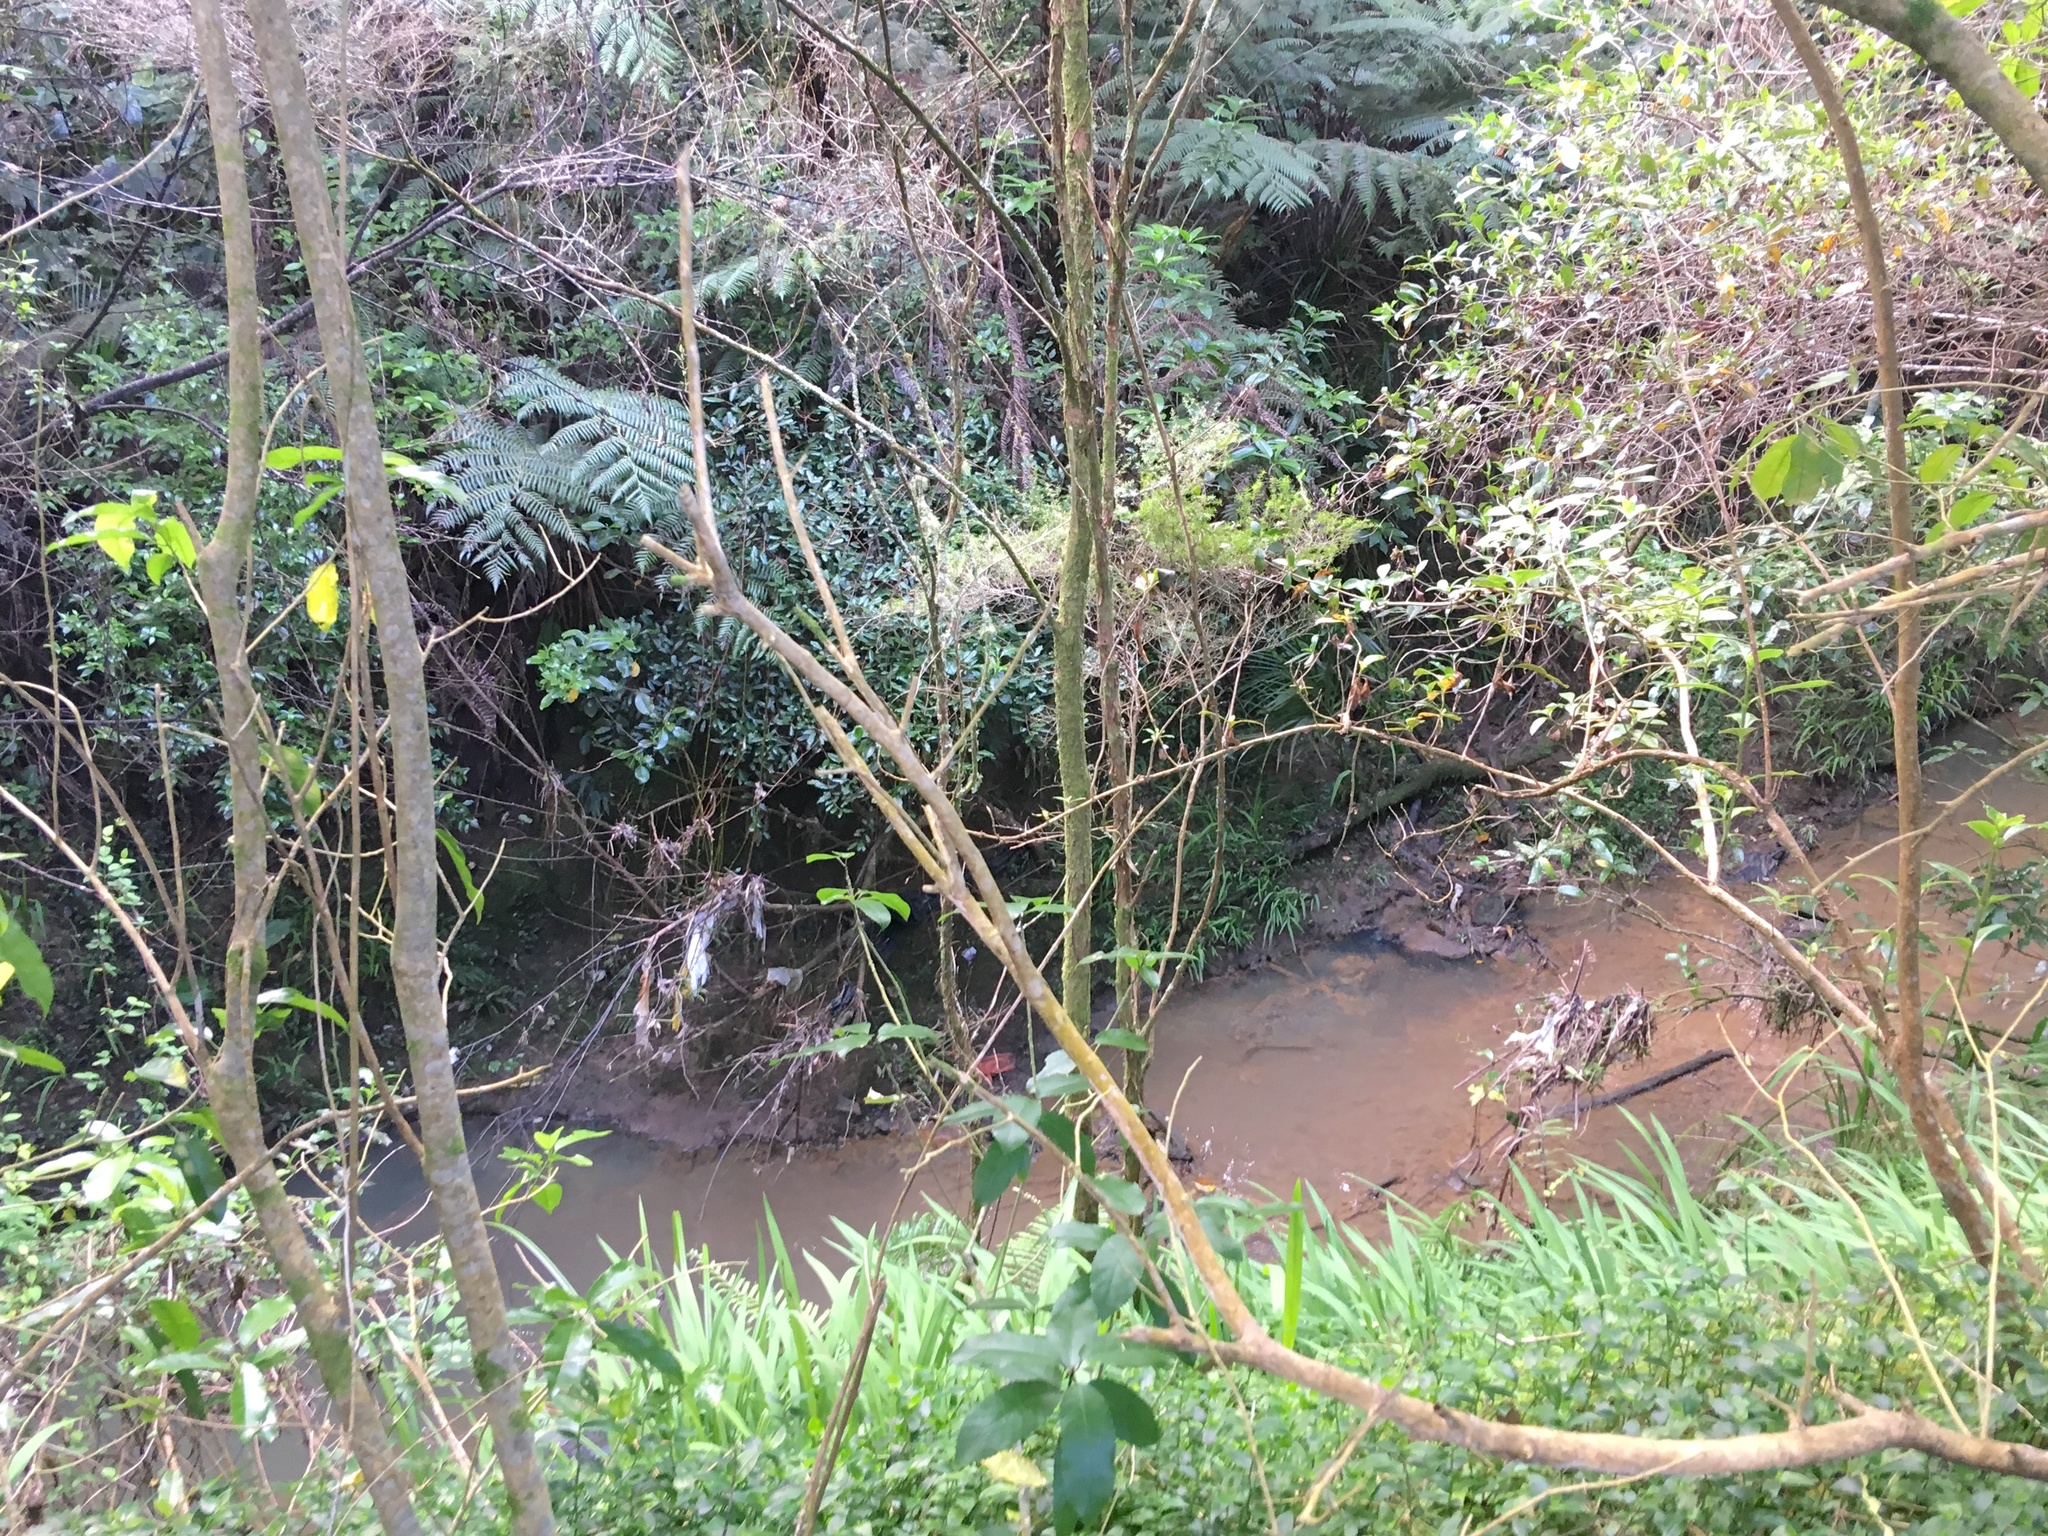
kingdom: Plantae
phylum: Tracheophyta
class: Liliopsida
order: Asparagales
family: Iridaceae
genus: Crocosmia
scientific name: Crocosmia crocosmiiflora
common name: Montbretia
